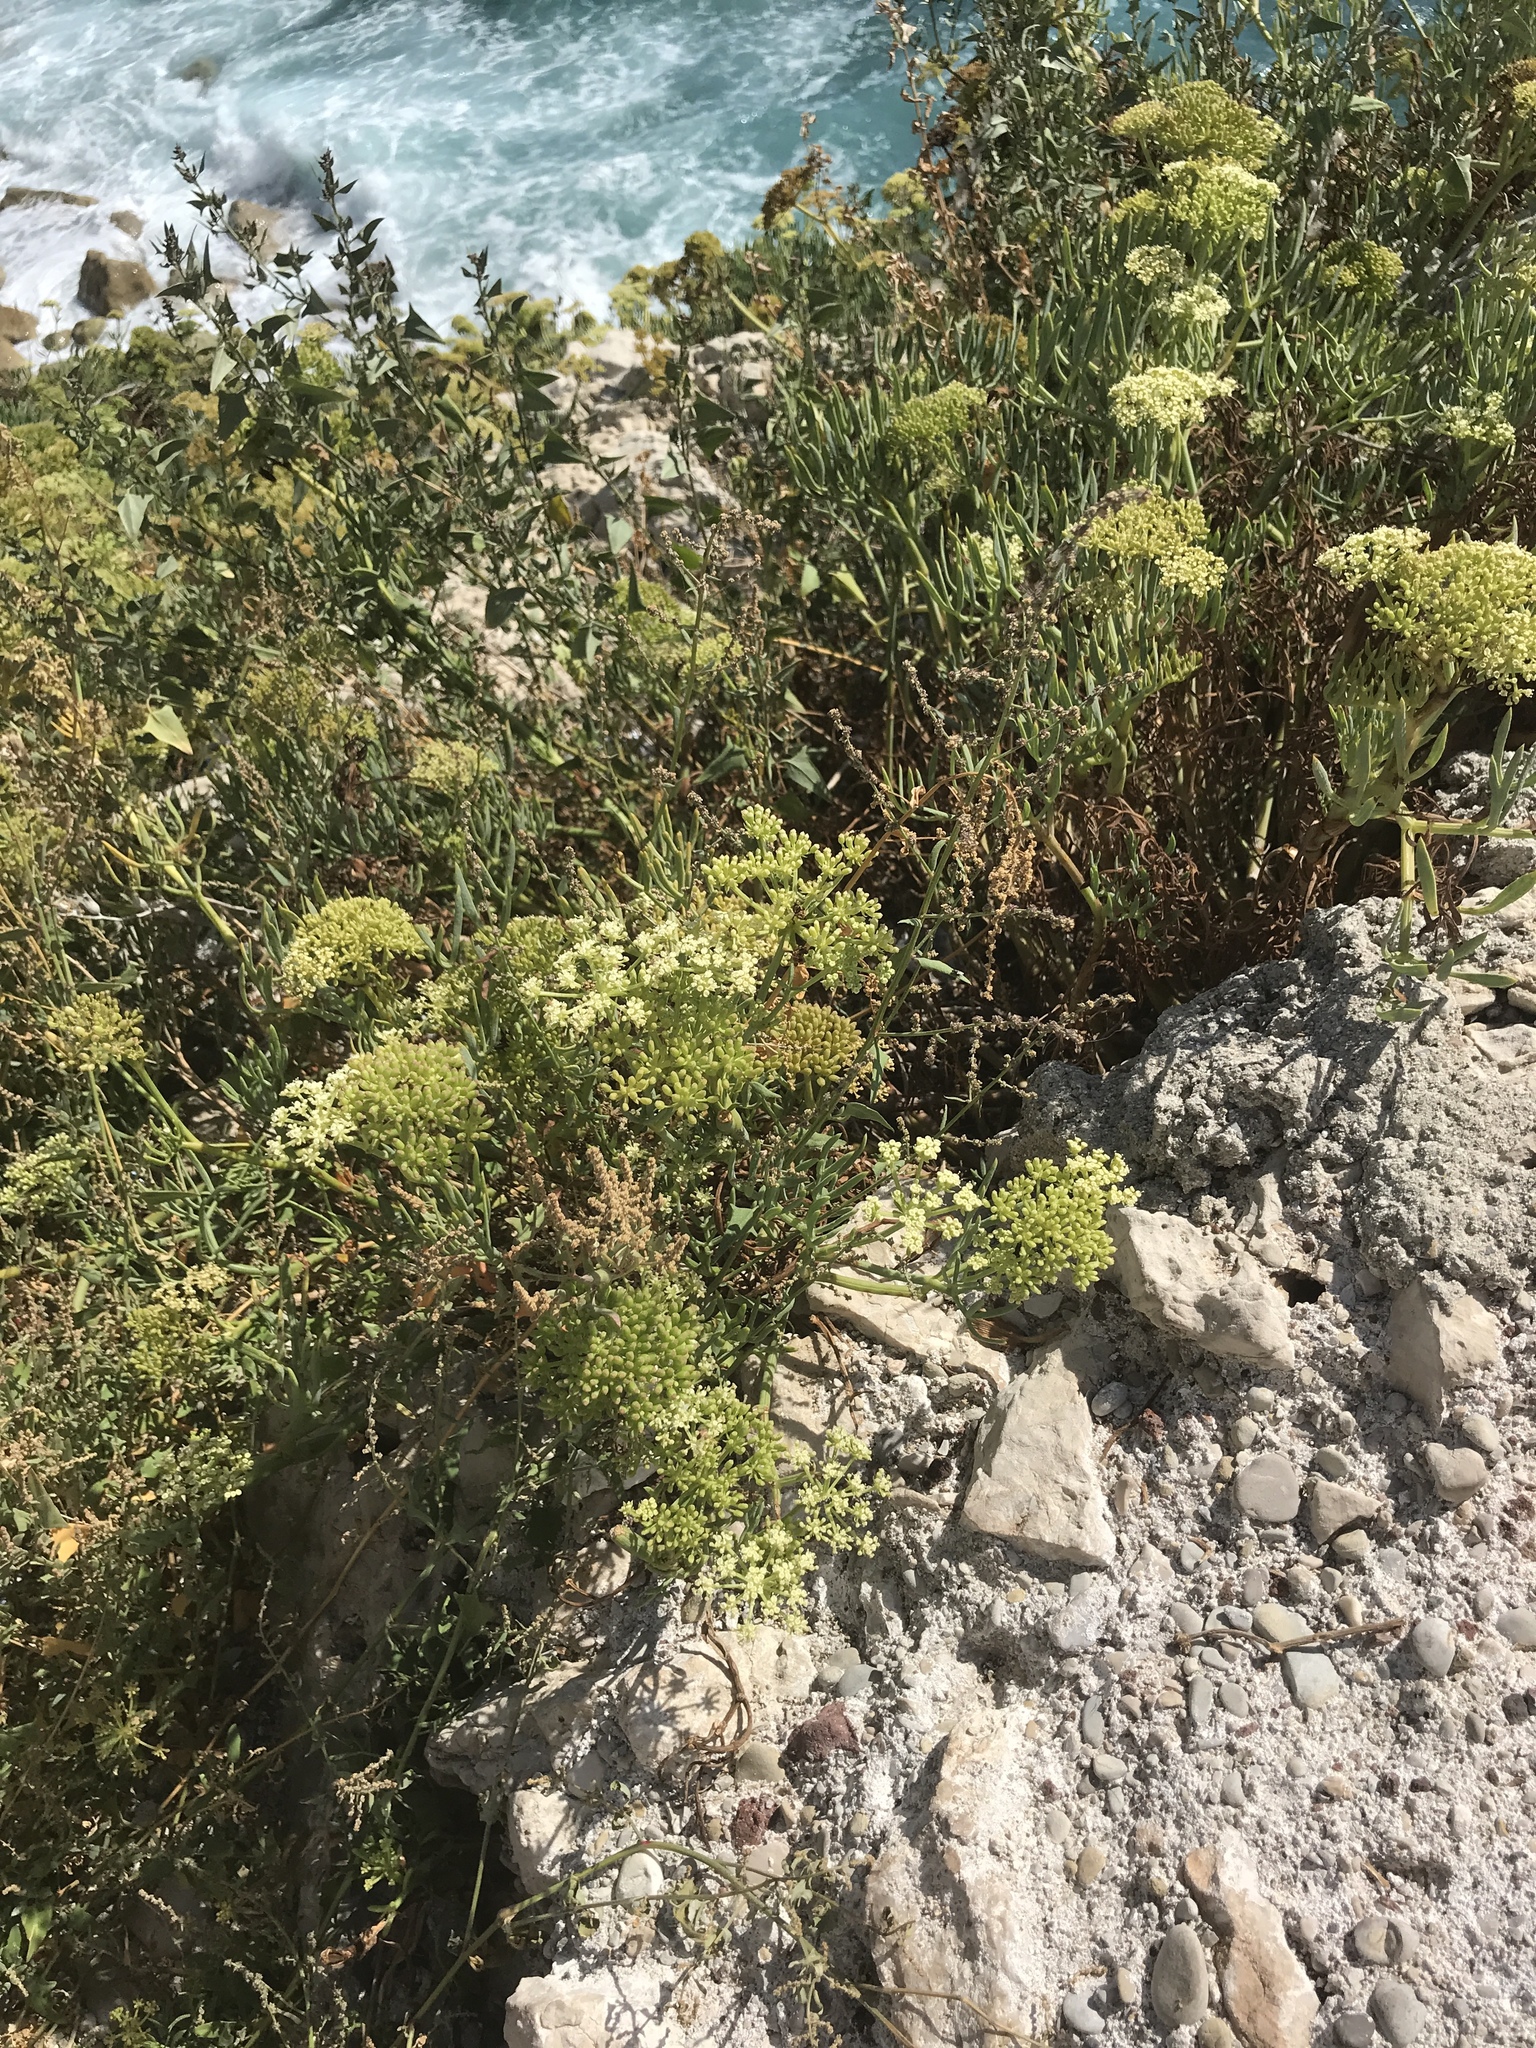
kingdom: Plantae
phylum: Tracheophyta
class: Magnoliopsida
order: Apiales
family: Apiaceae
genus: Crithmum
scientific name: Crithmum maritimum
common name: Rock samphire
